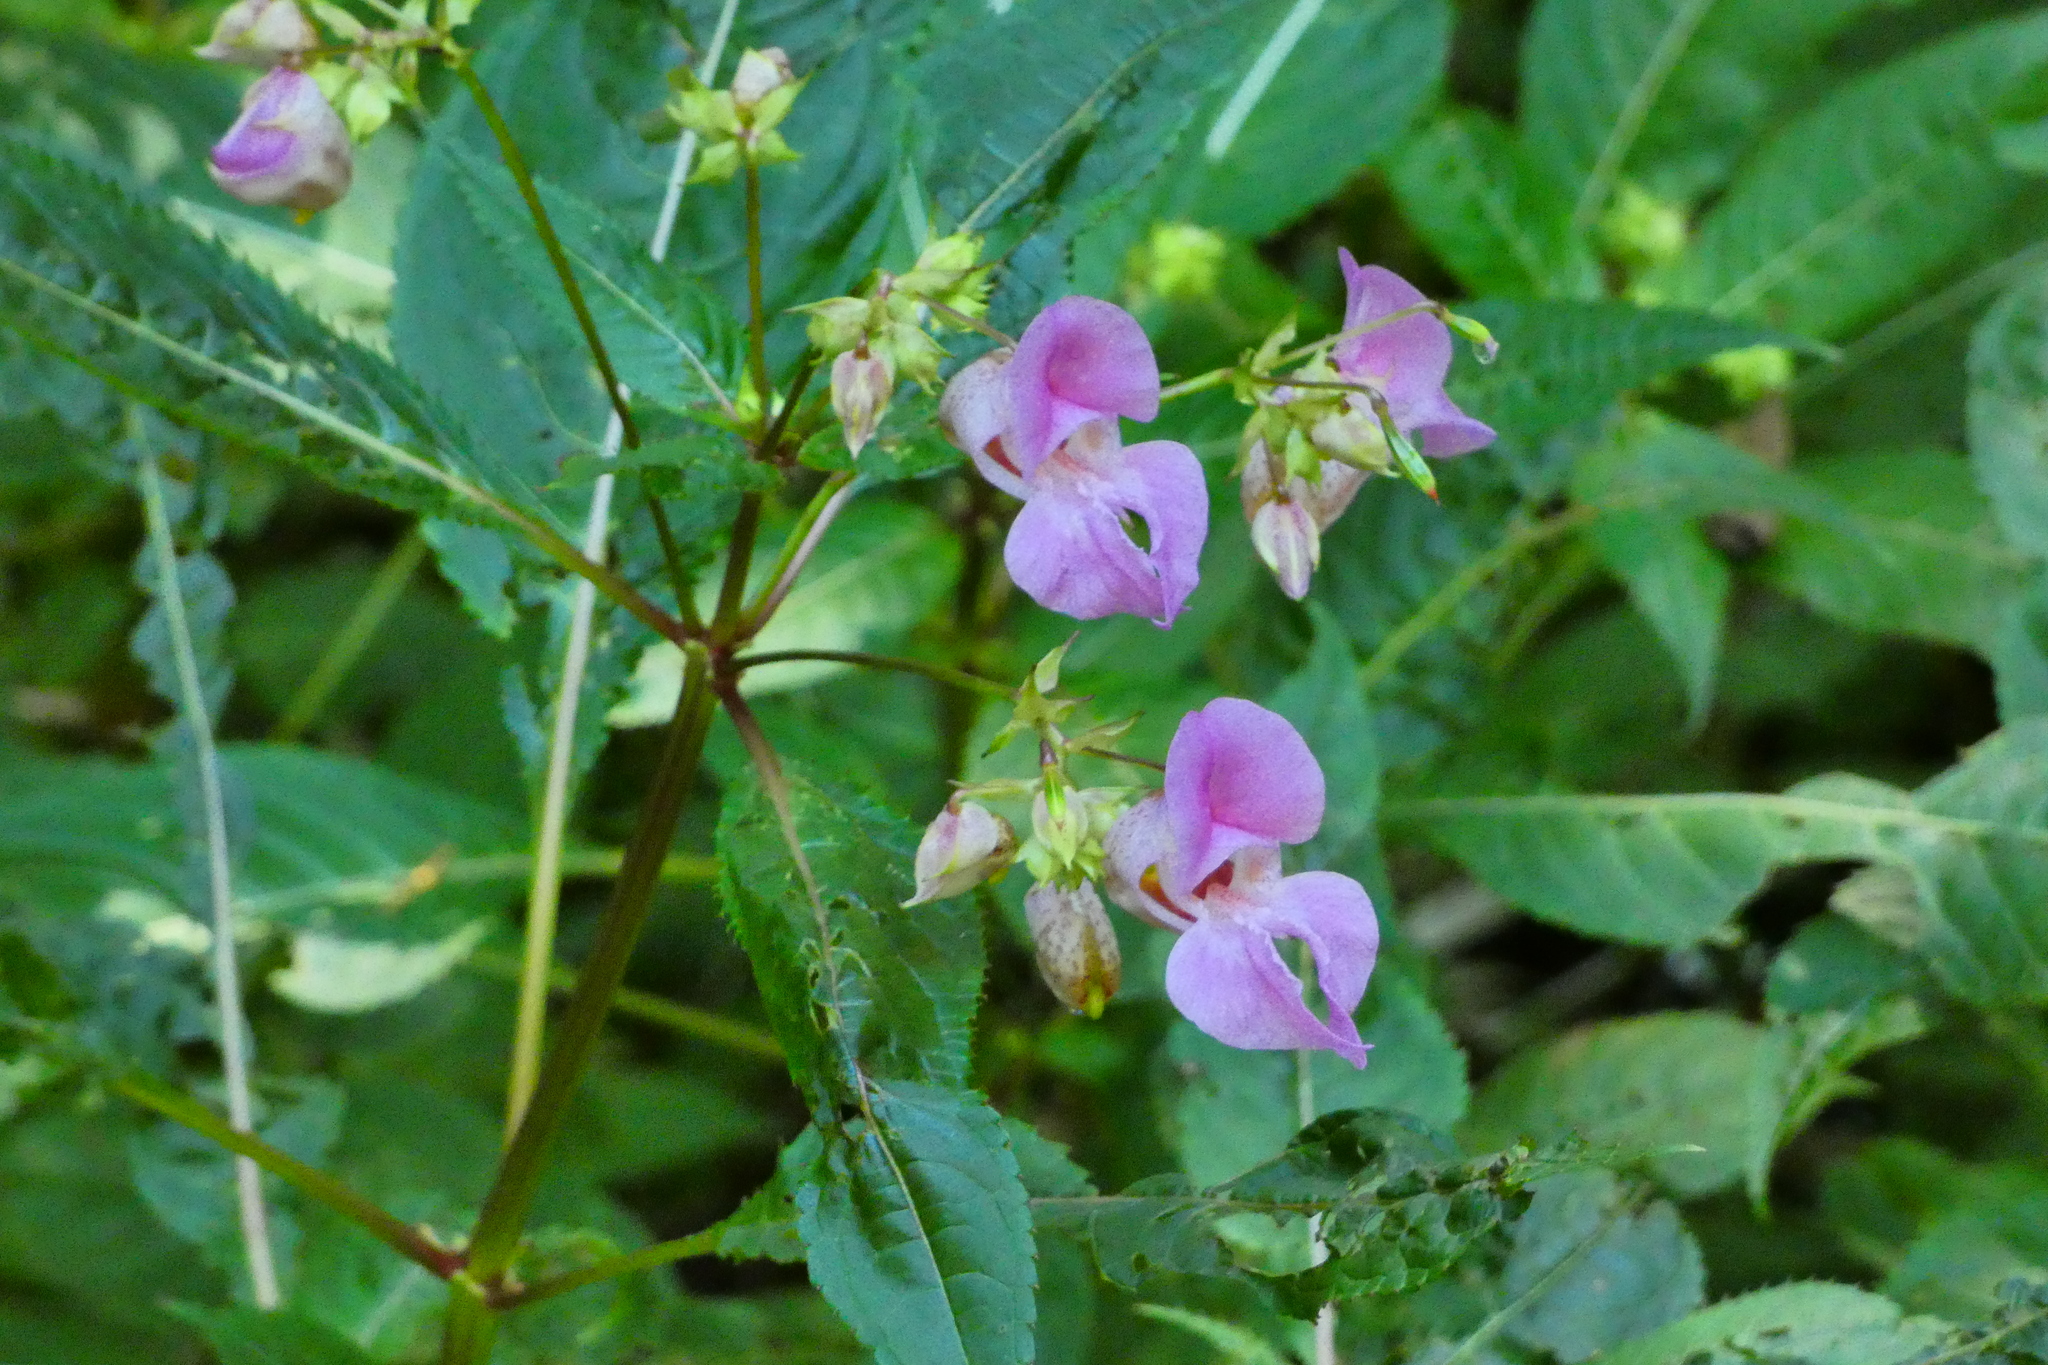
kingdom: Plantae
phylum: Tracheophyta
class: Magnoliopsida
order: Ericales
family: Balsaminaceae
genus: Impatiens
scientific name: Impatiens glandulifera
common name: Himalayan balsam
